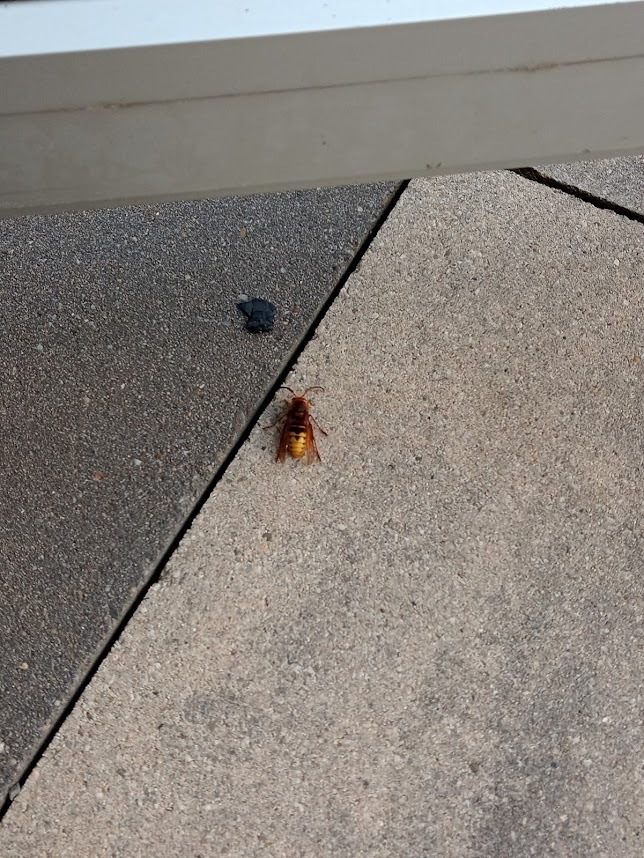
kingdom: Animalia
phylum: Arthropoda
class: Insecta
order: Hymenoptera
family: Vespidae
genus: Vespa
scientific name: Vespa crabro
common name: Hornet
